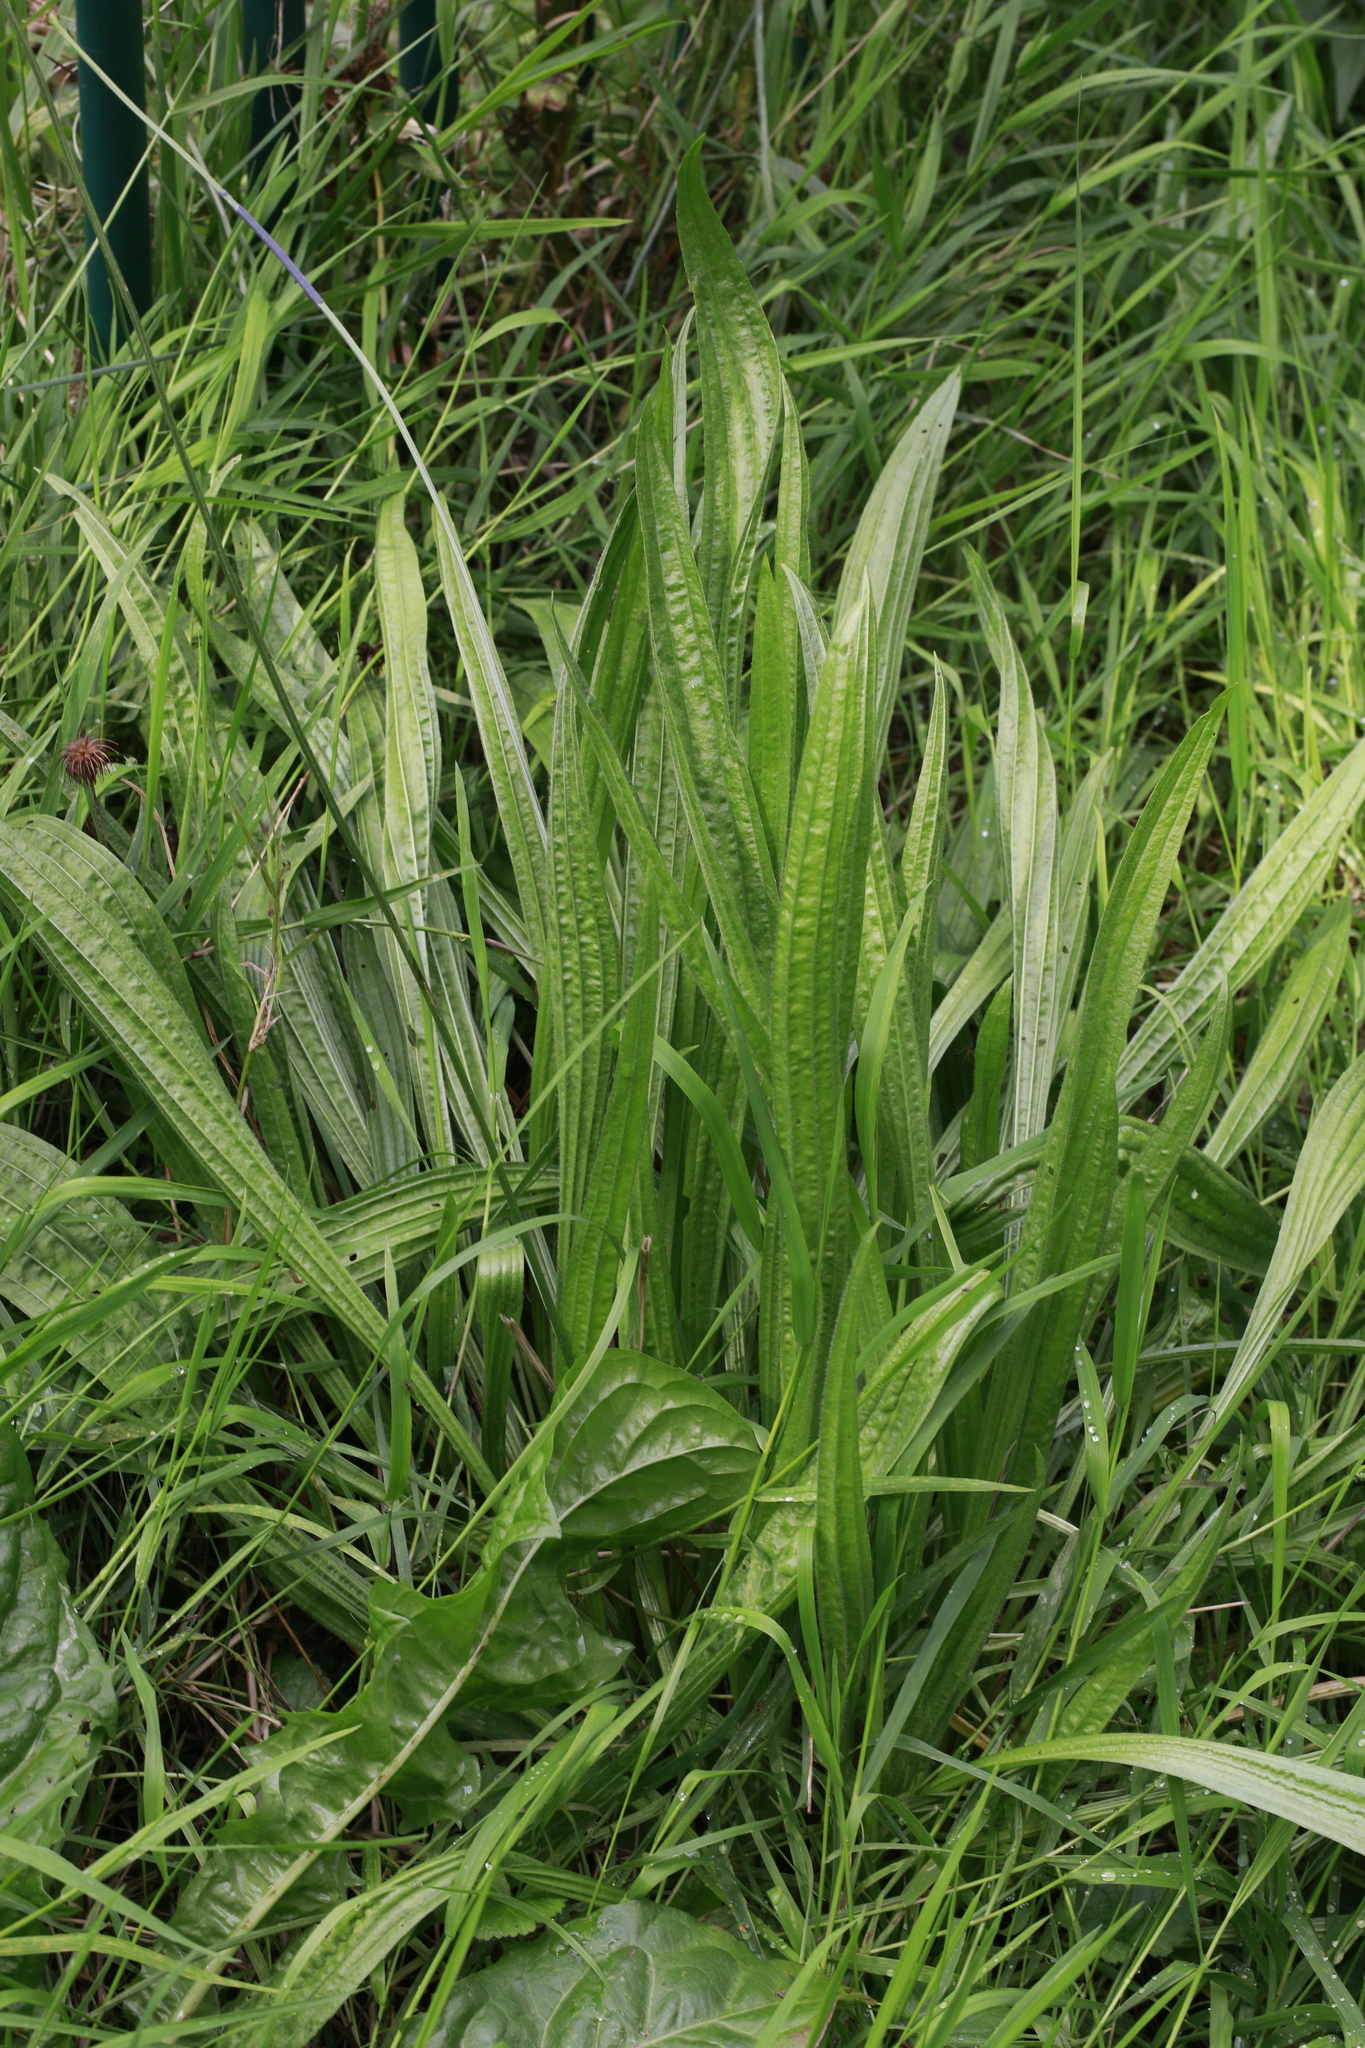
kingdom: Plantae
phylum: Tracheophyta
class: Magnoliopsida
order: Lamiales
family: Plantaginaceae
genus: Plantago
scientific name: Plantago lanceolata
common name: Ribwort plantain
